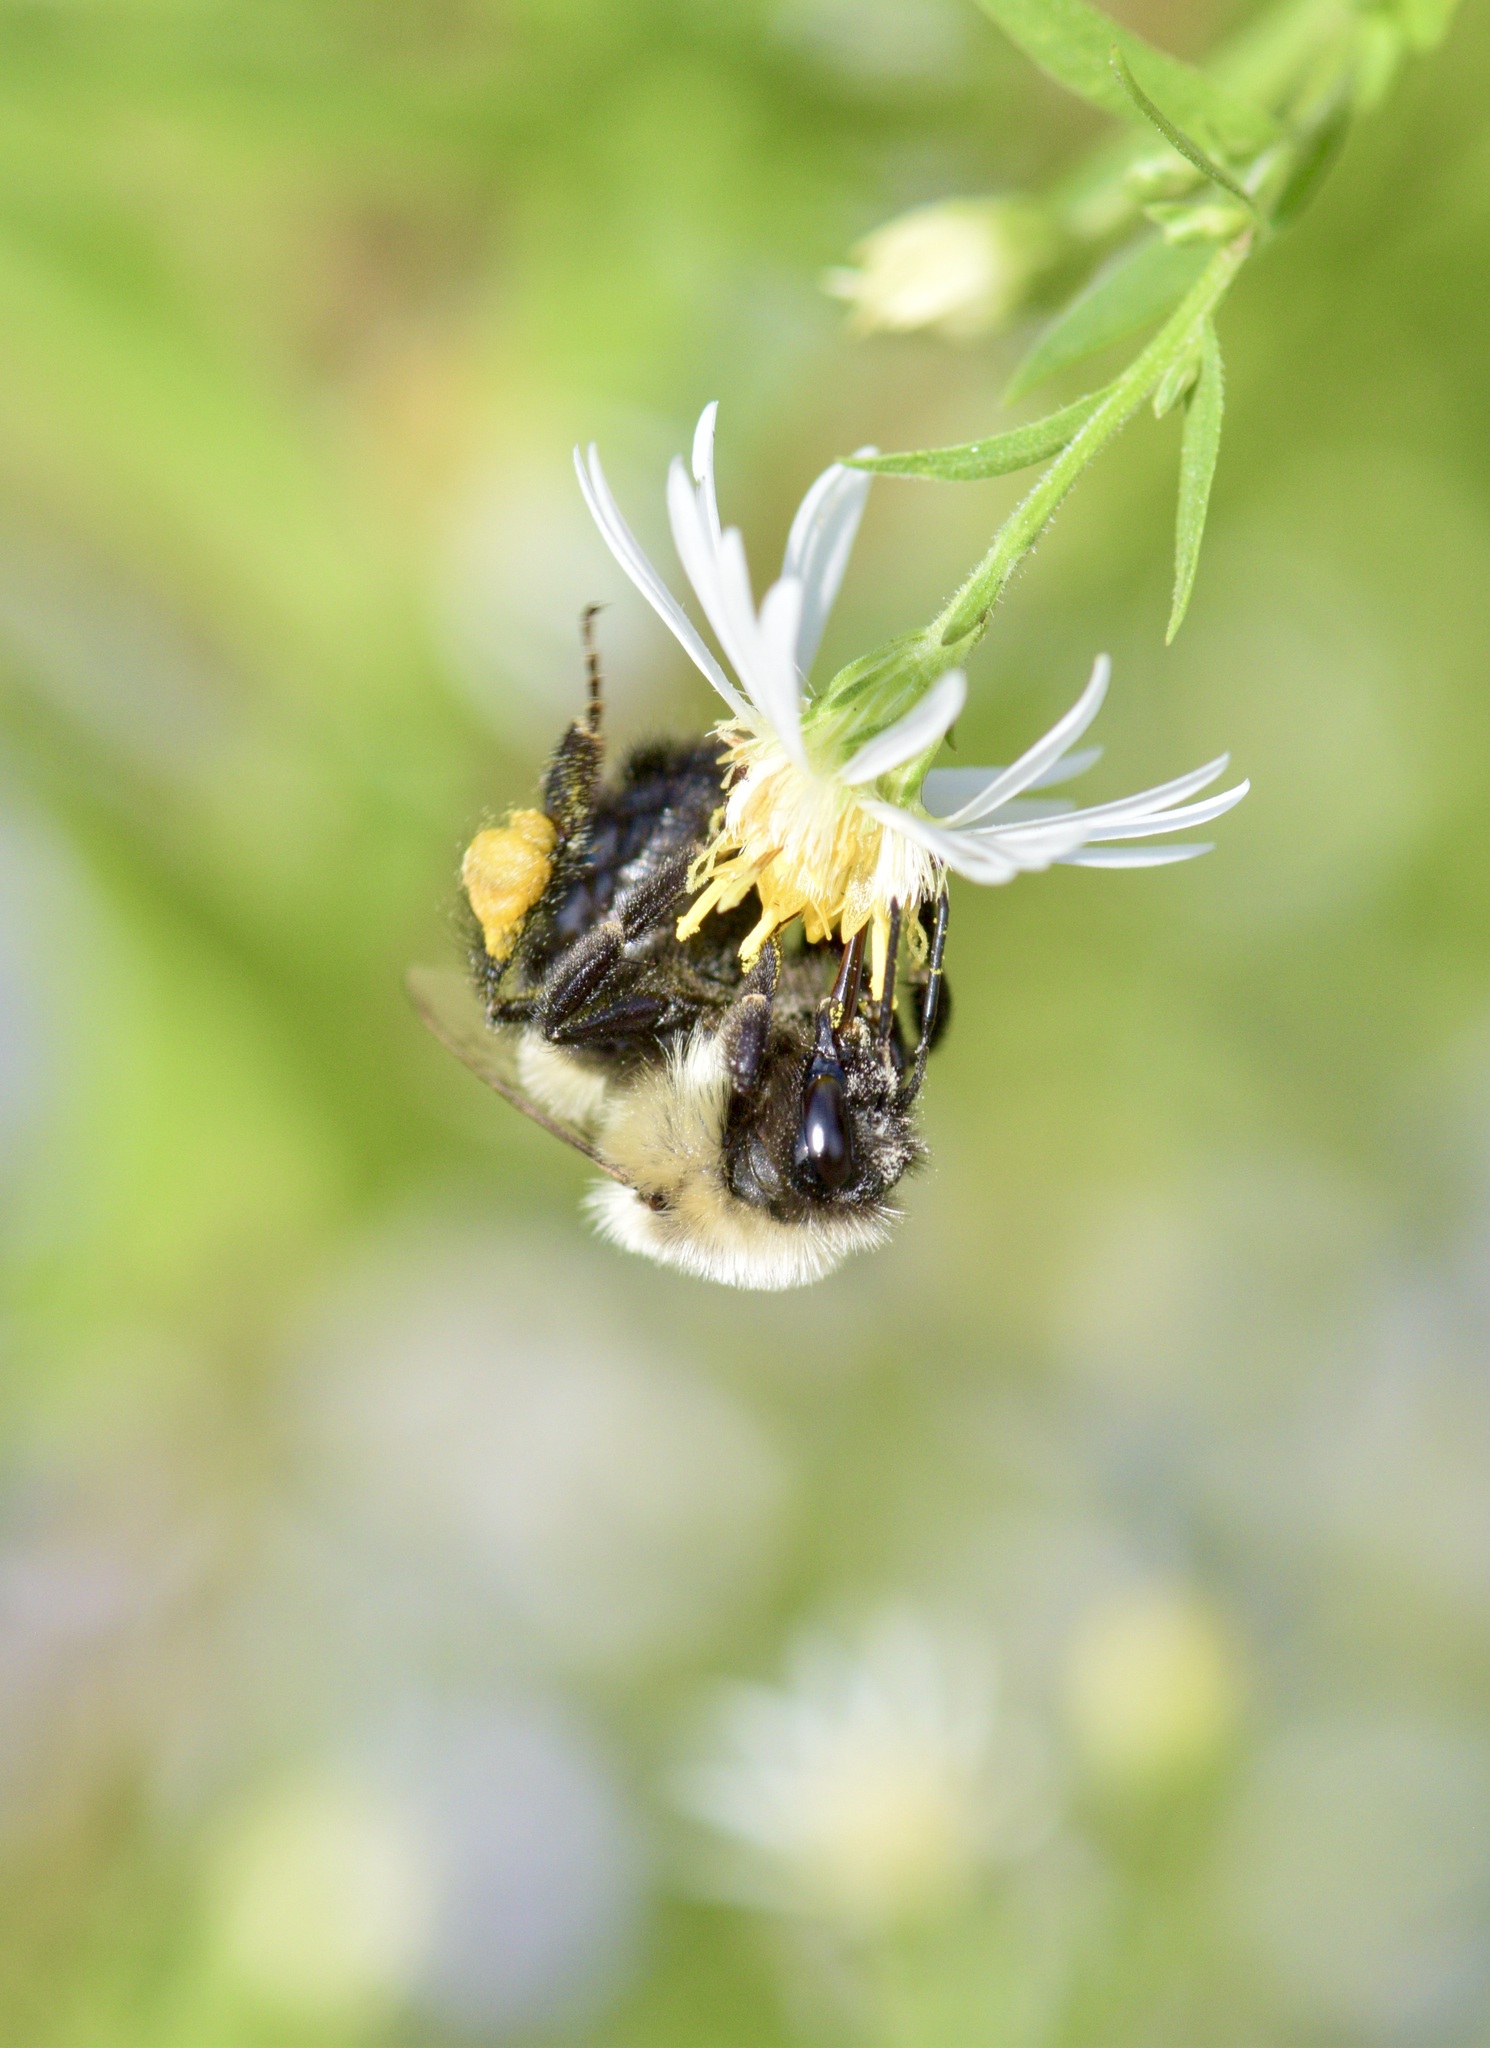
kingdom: Animalia
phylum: Arthropoda
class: Insecta
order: Hymenoptera
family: Apidae
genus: Bombus
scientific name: Bombus impatiens
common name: Common eastern bumble bee
